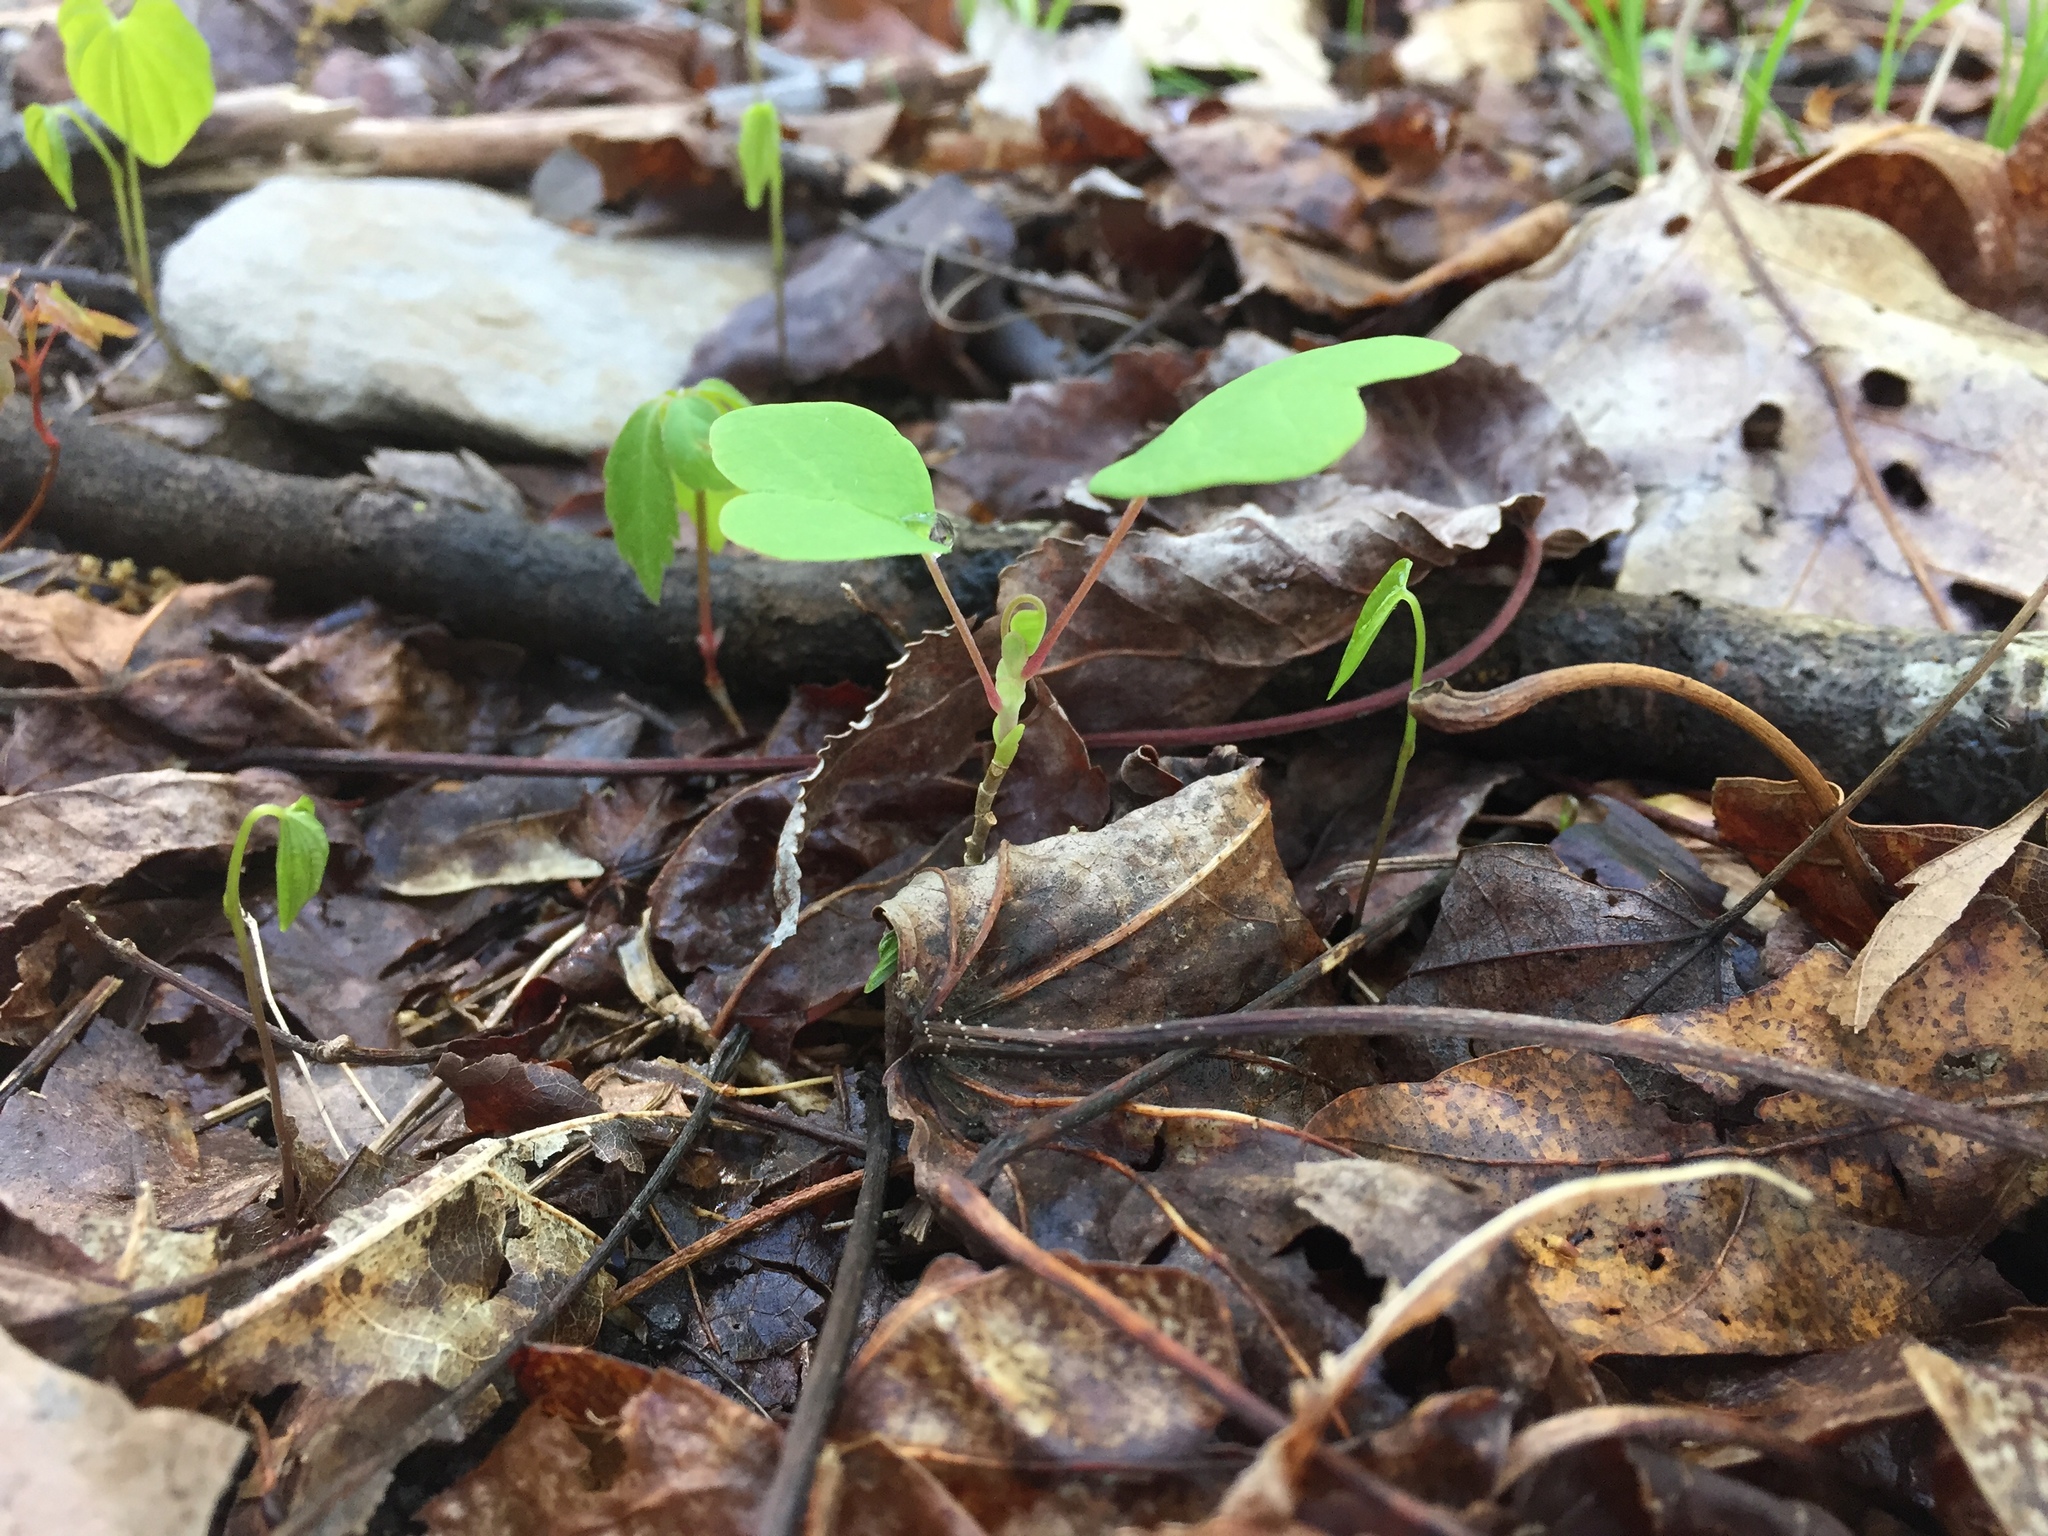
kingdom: Plantae
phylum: Tracheophyta
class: Magnoliopsida
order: Magnoliales
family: Magnoliaceae
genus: Liriodendron
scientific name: Liriodendron tulipifera
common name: Tulip tree
